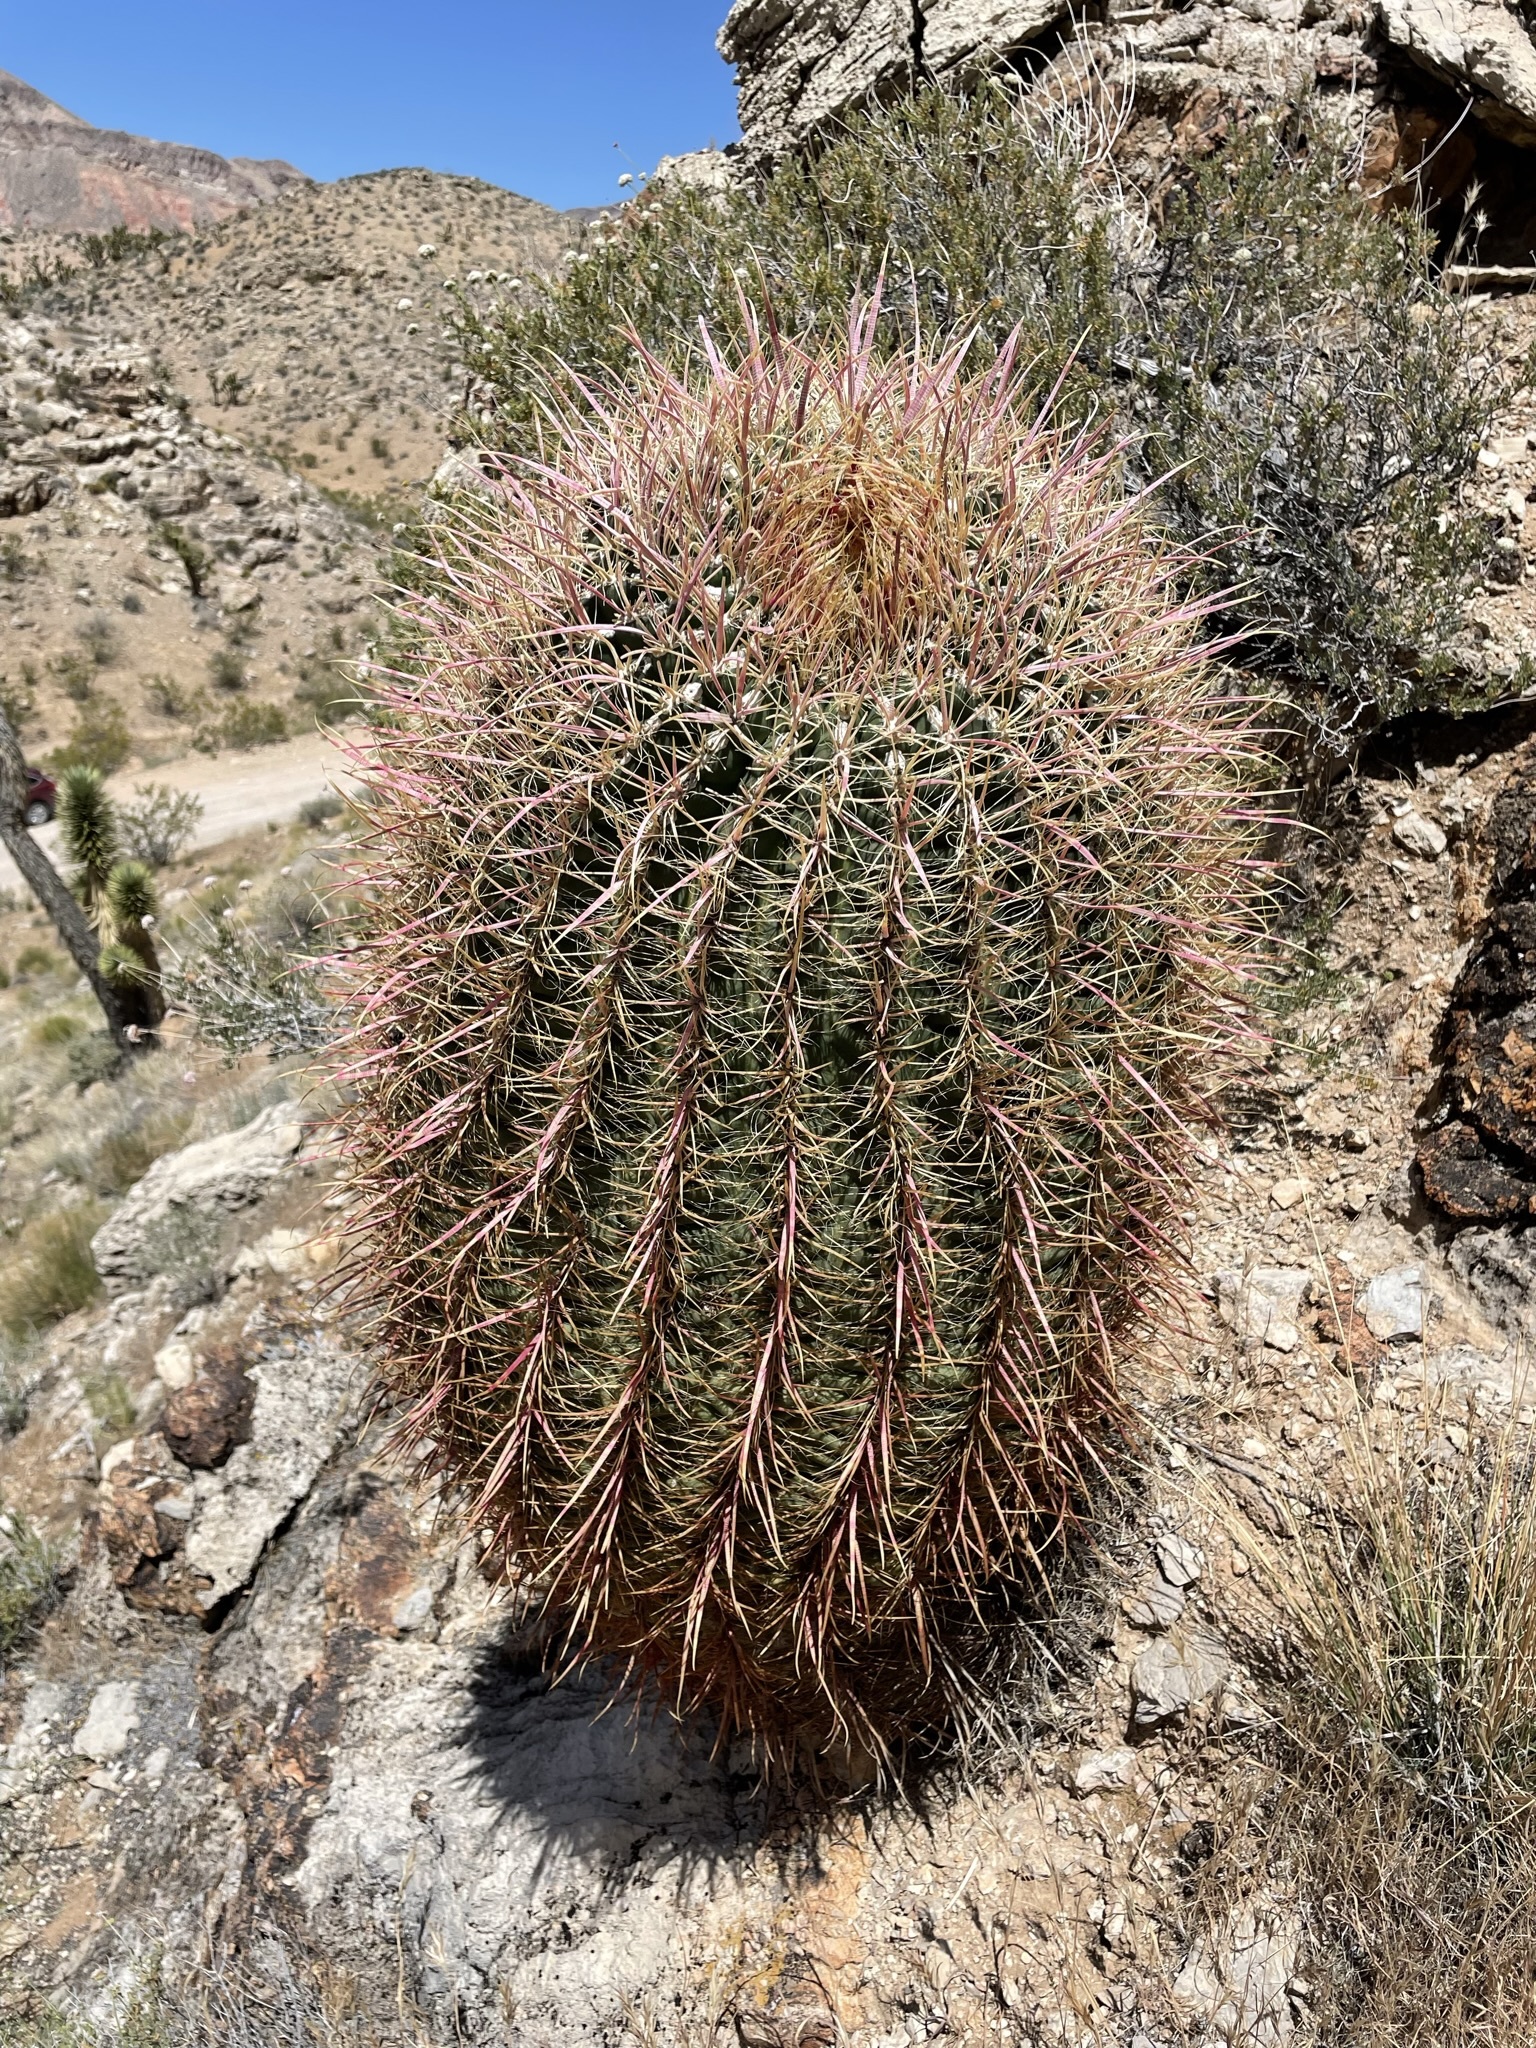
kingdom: Plantae
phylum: Tracheophyta
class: Magnoliopsida
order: Caryophyllales
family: Cactaceae
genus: Ferocactus
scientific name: Ferocactus cylindraceus
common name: California barrel cactus
